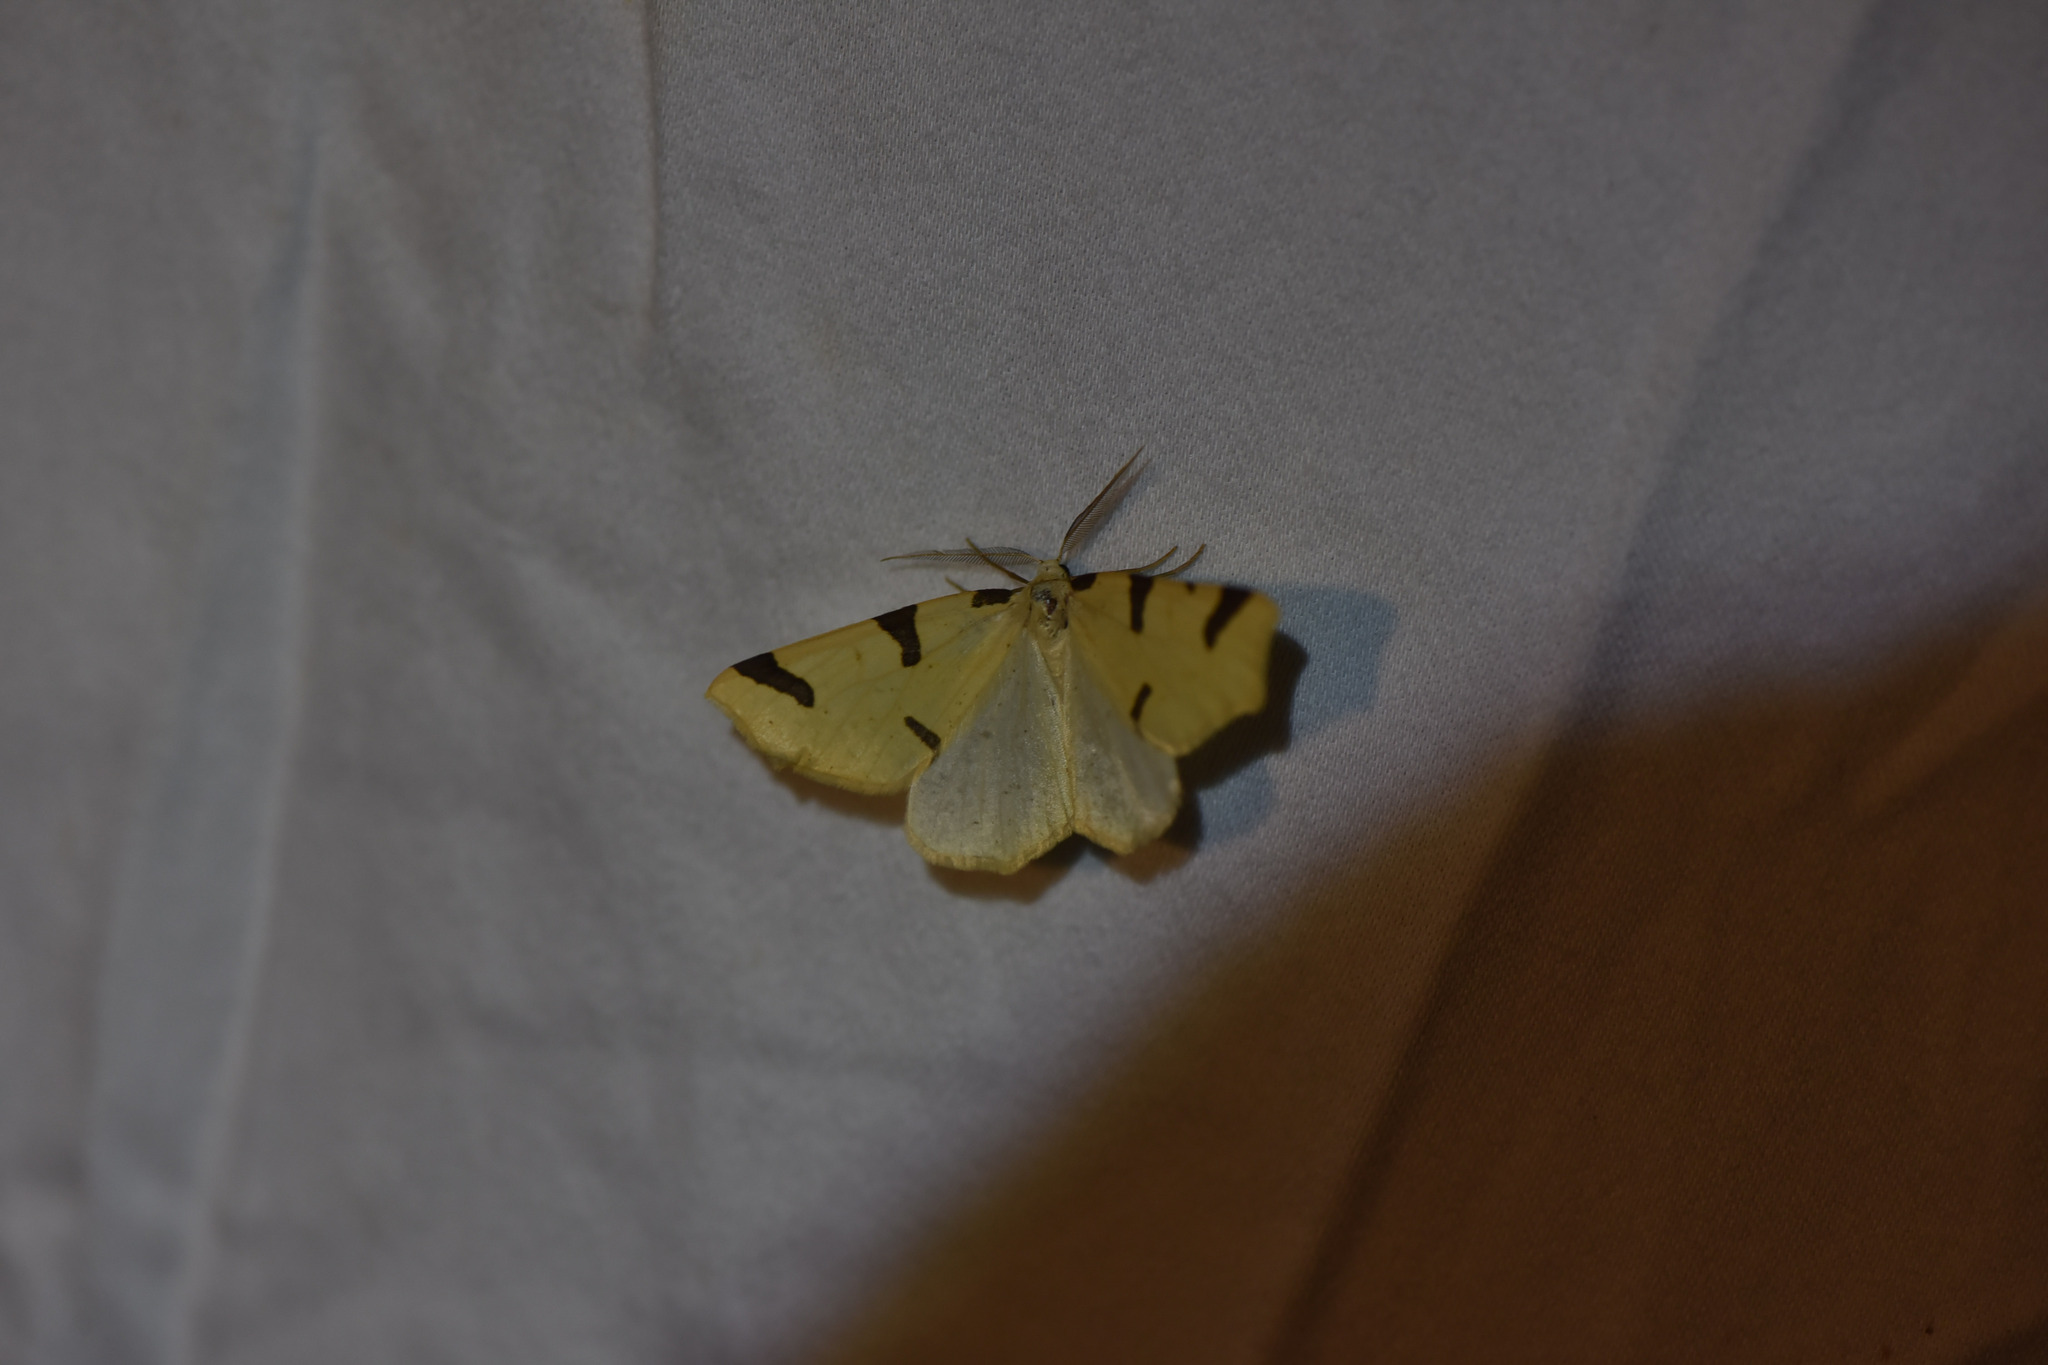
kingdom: Animalia
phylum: Arthropoda
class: Insecta
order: Lepidoptera
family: Geometridae
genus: Neoterpes
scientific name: Neoterpes trianguliferata
